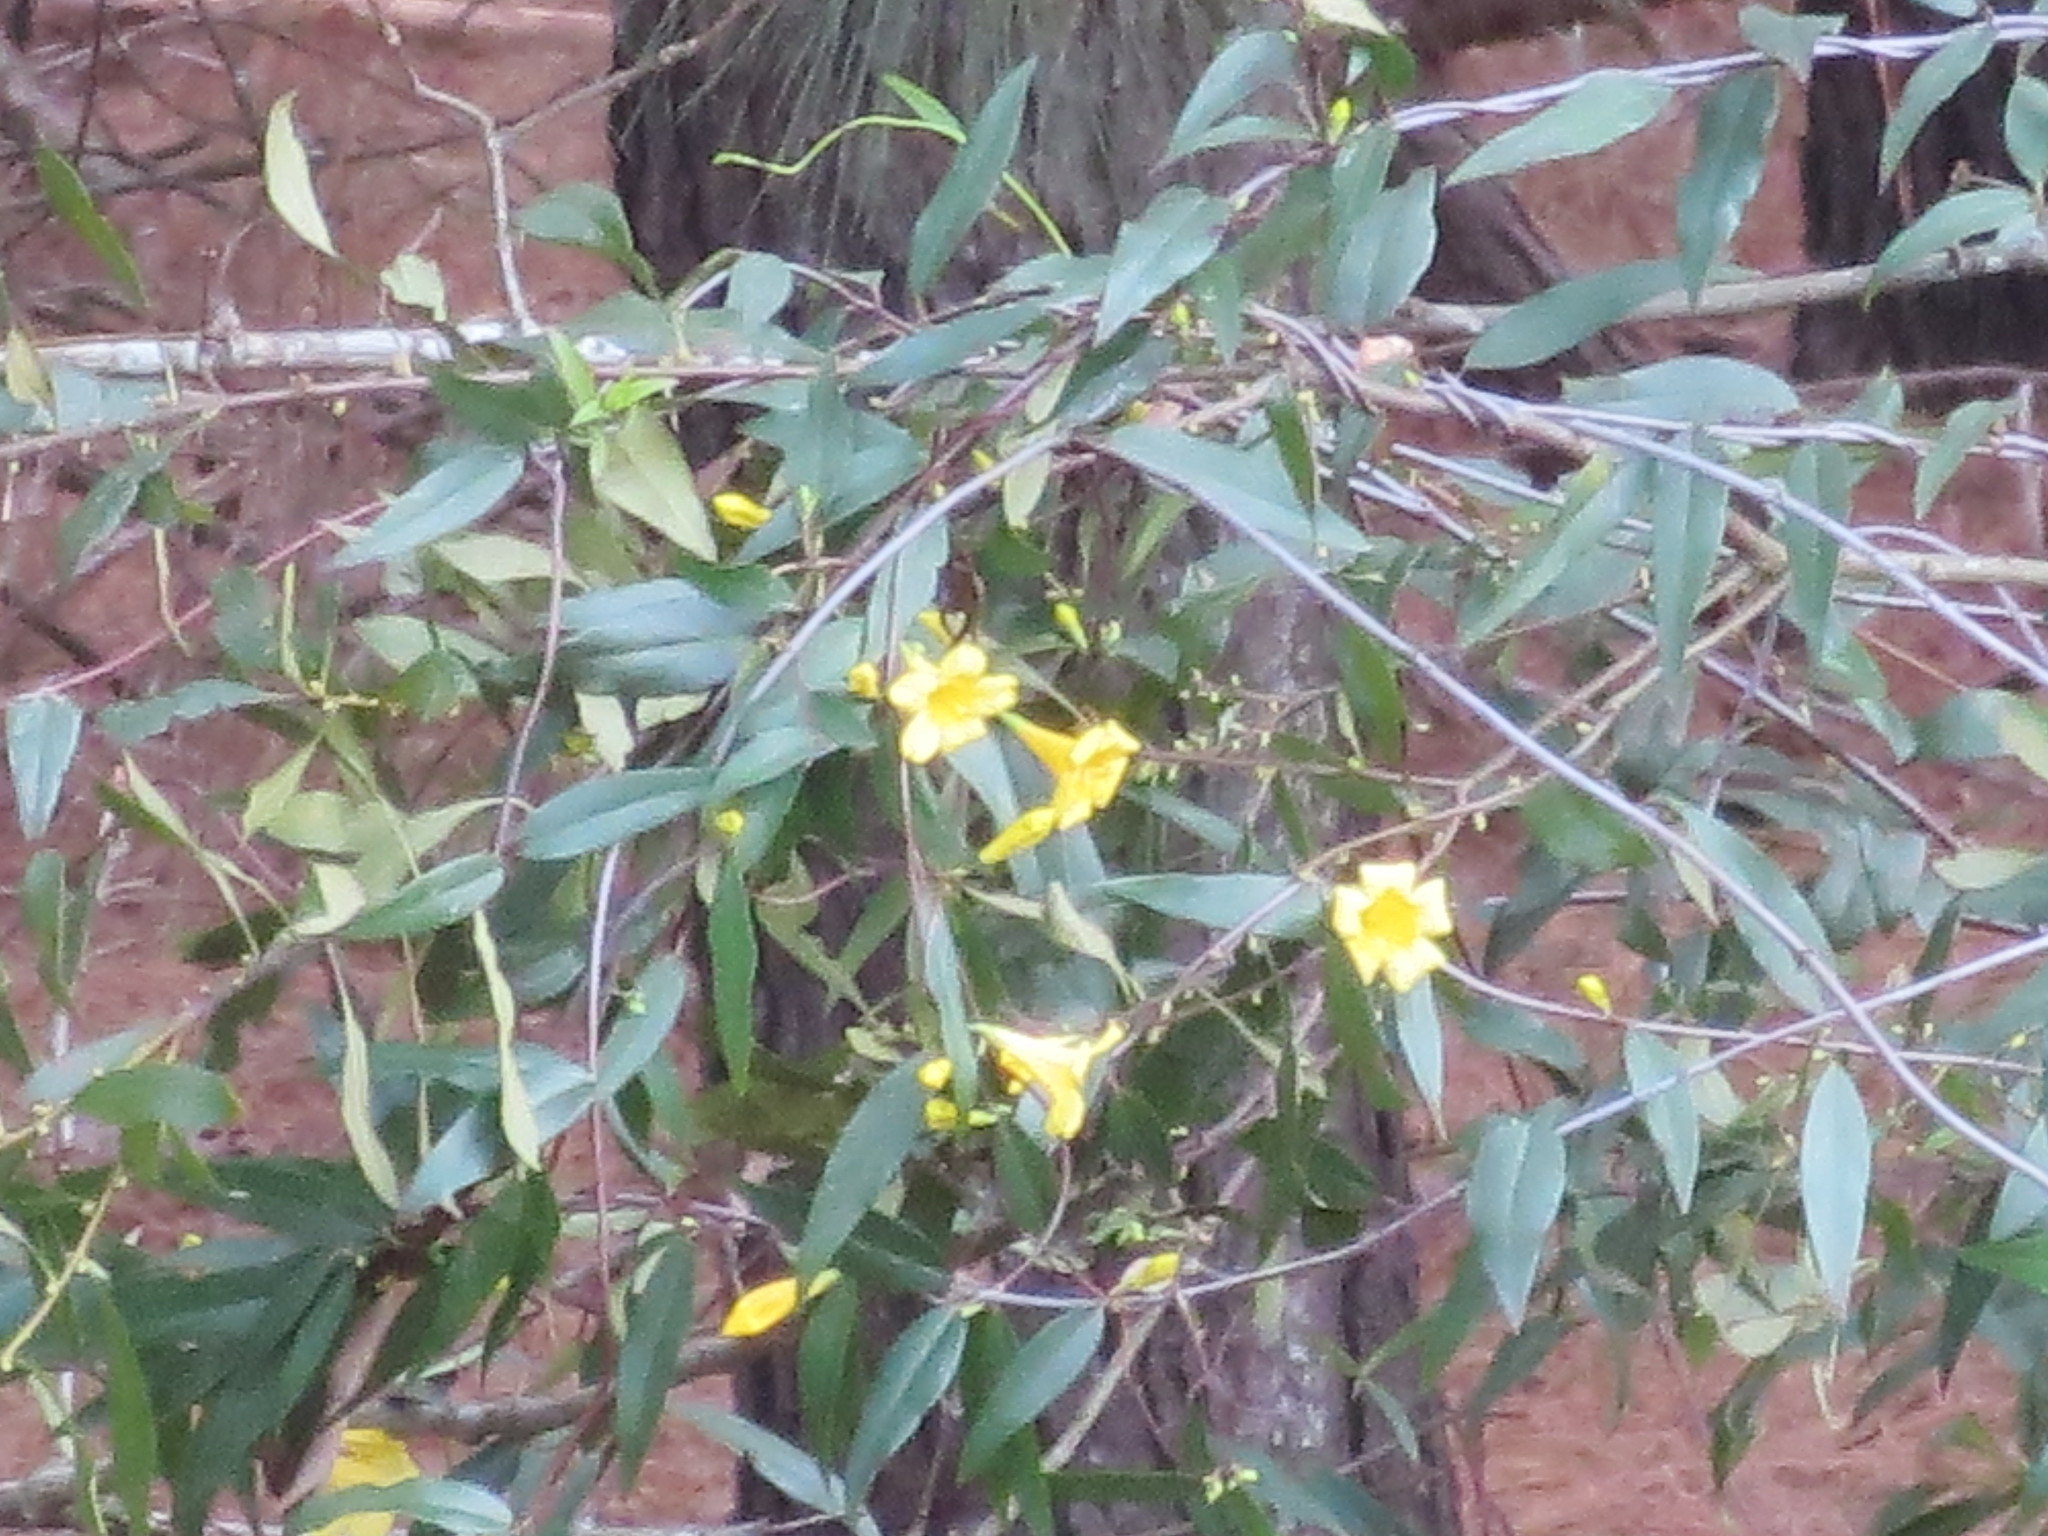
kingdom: Plantae
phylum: Tracheophyta
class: Magnoliopsida
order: Gentianales
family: Gelsemiaceae
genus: Gelsemium
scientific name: Gelsemium sempervirens
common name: Carolina-jasmine
